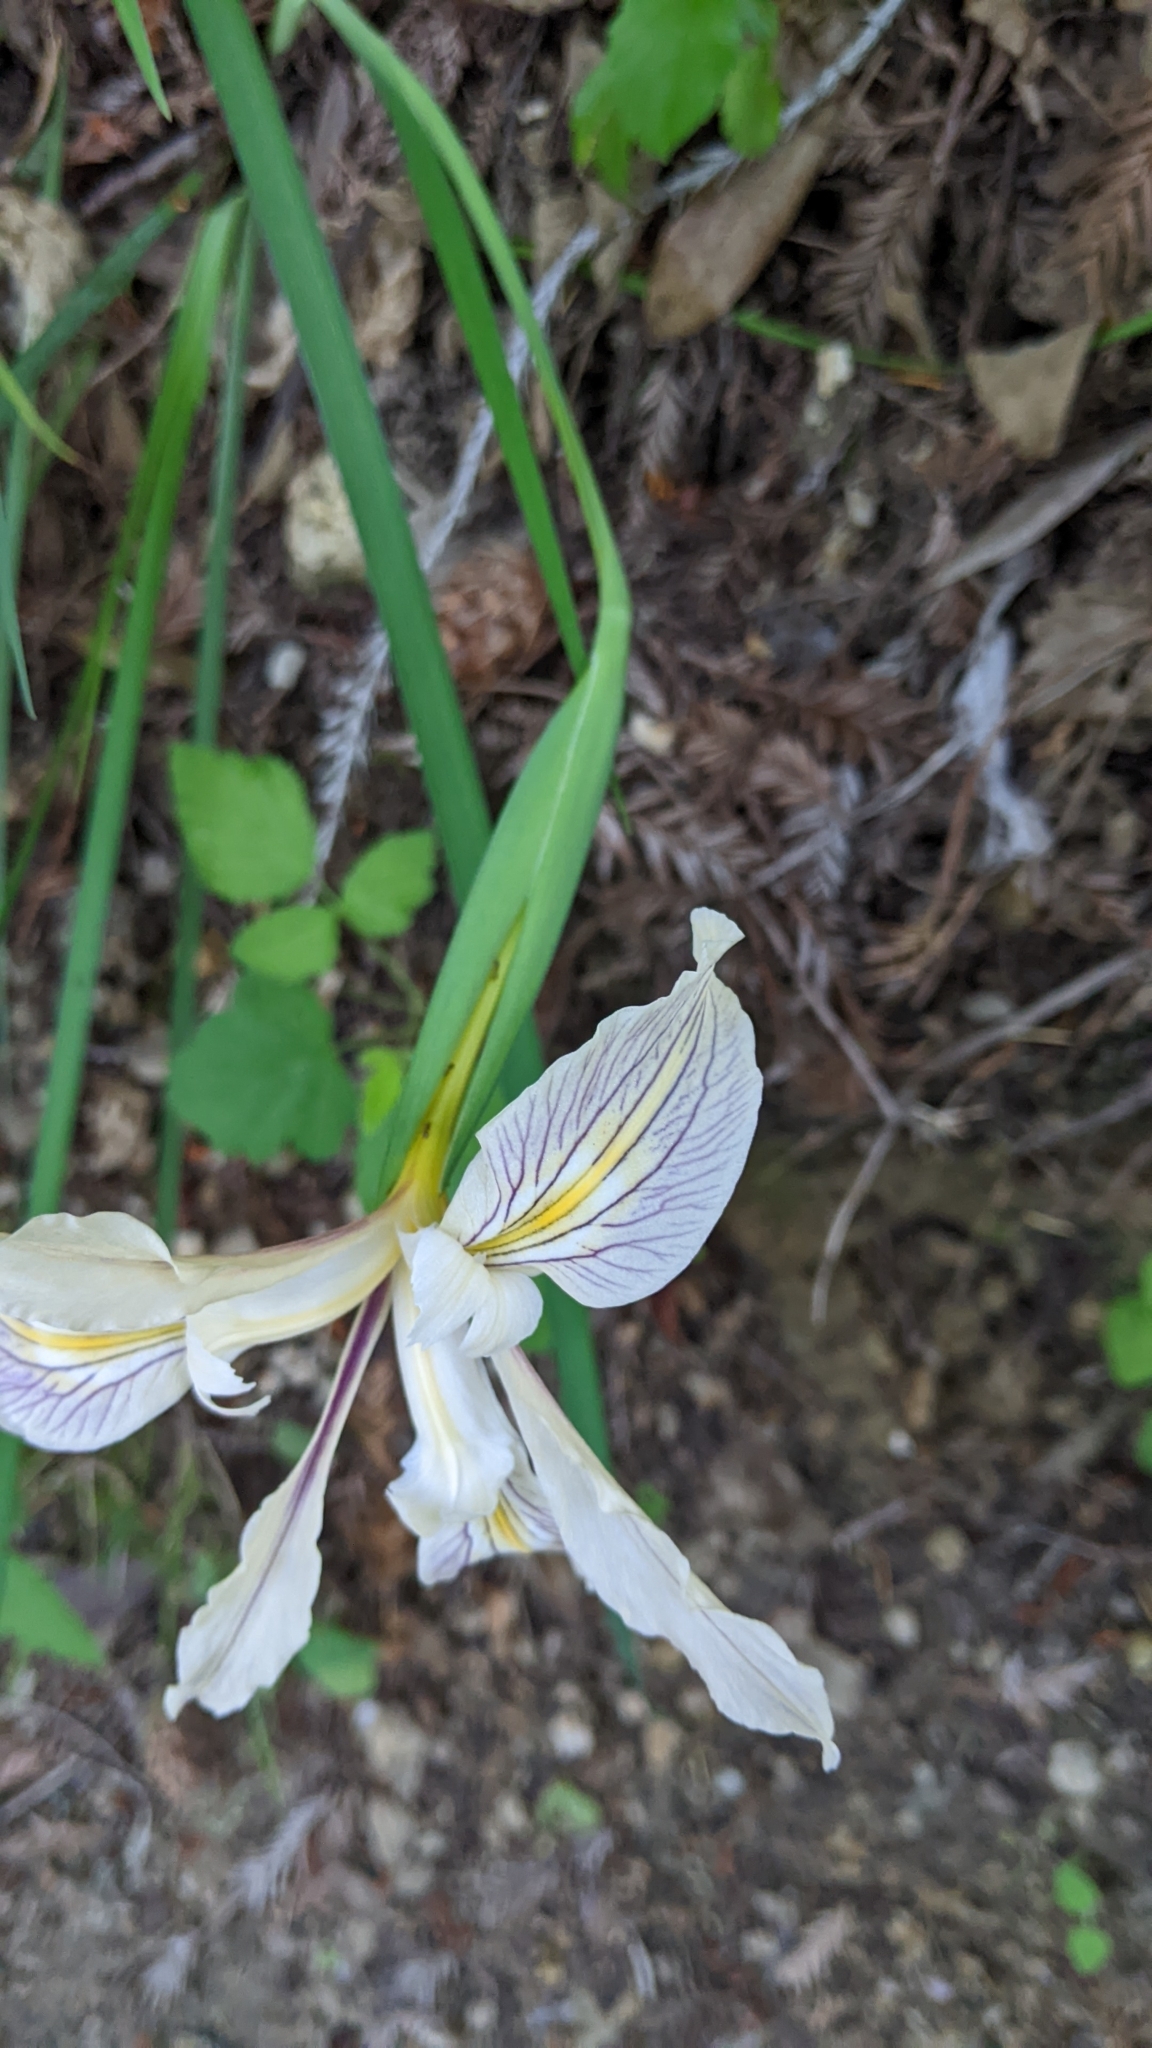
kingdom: Plantae
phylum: Tracheophyta
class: Liliopsida
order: Asparagales
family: Iridaceae
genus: Iris
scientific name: Iris fernaldii
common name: Fernald's iris
